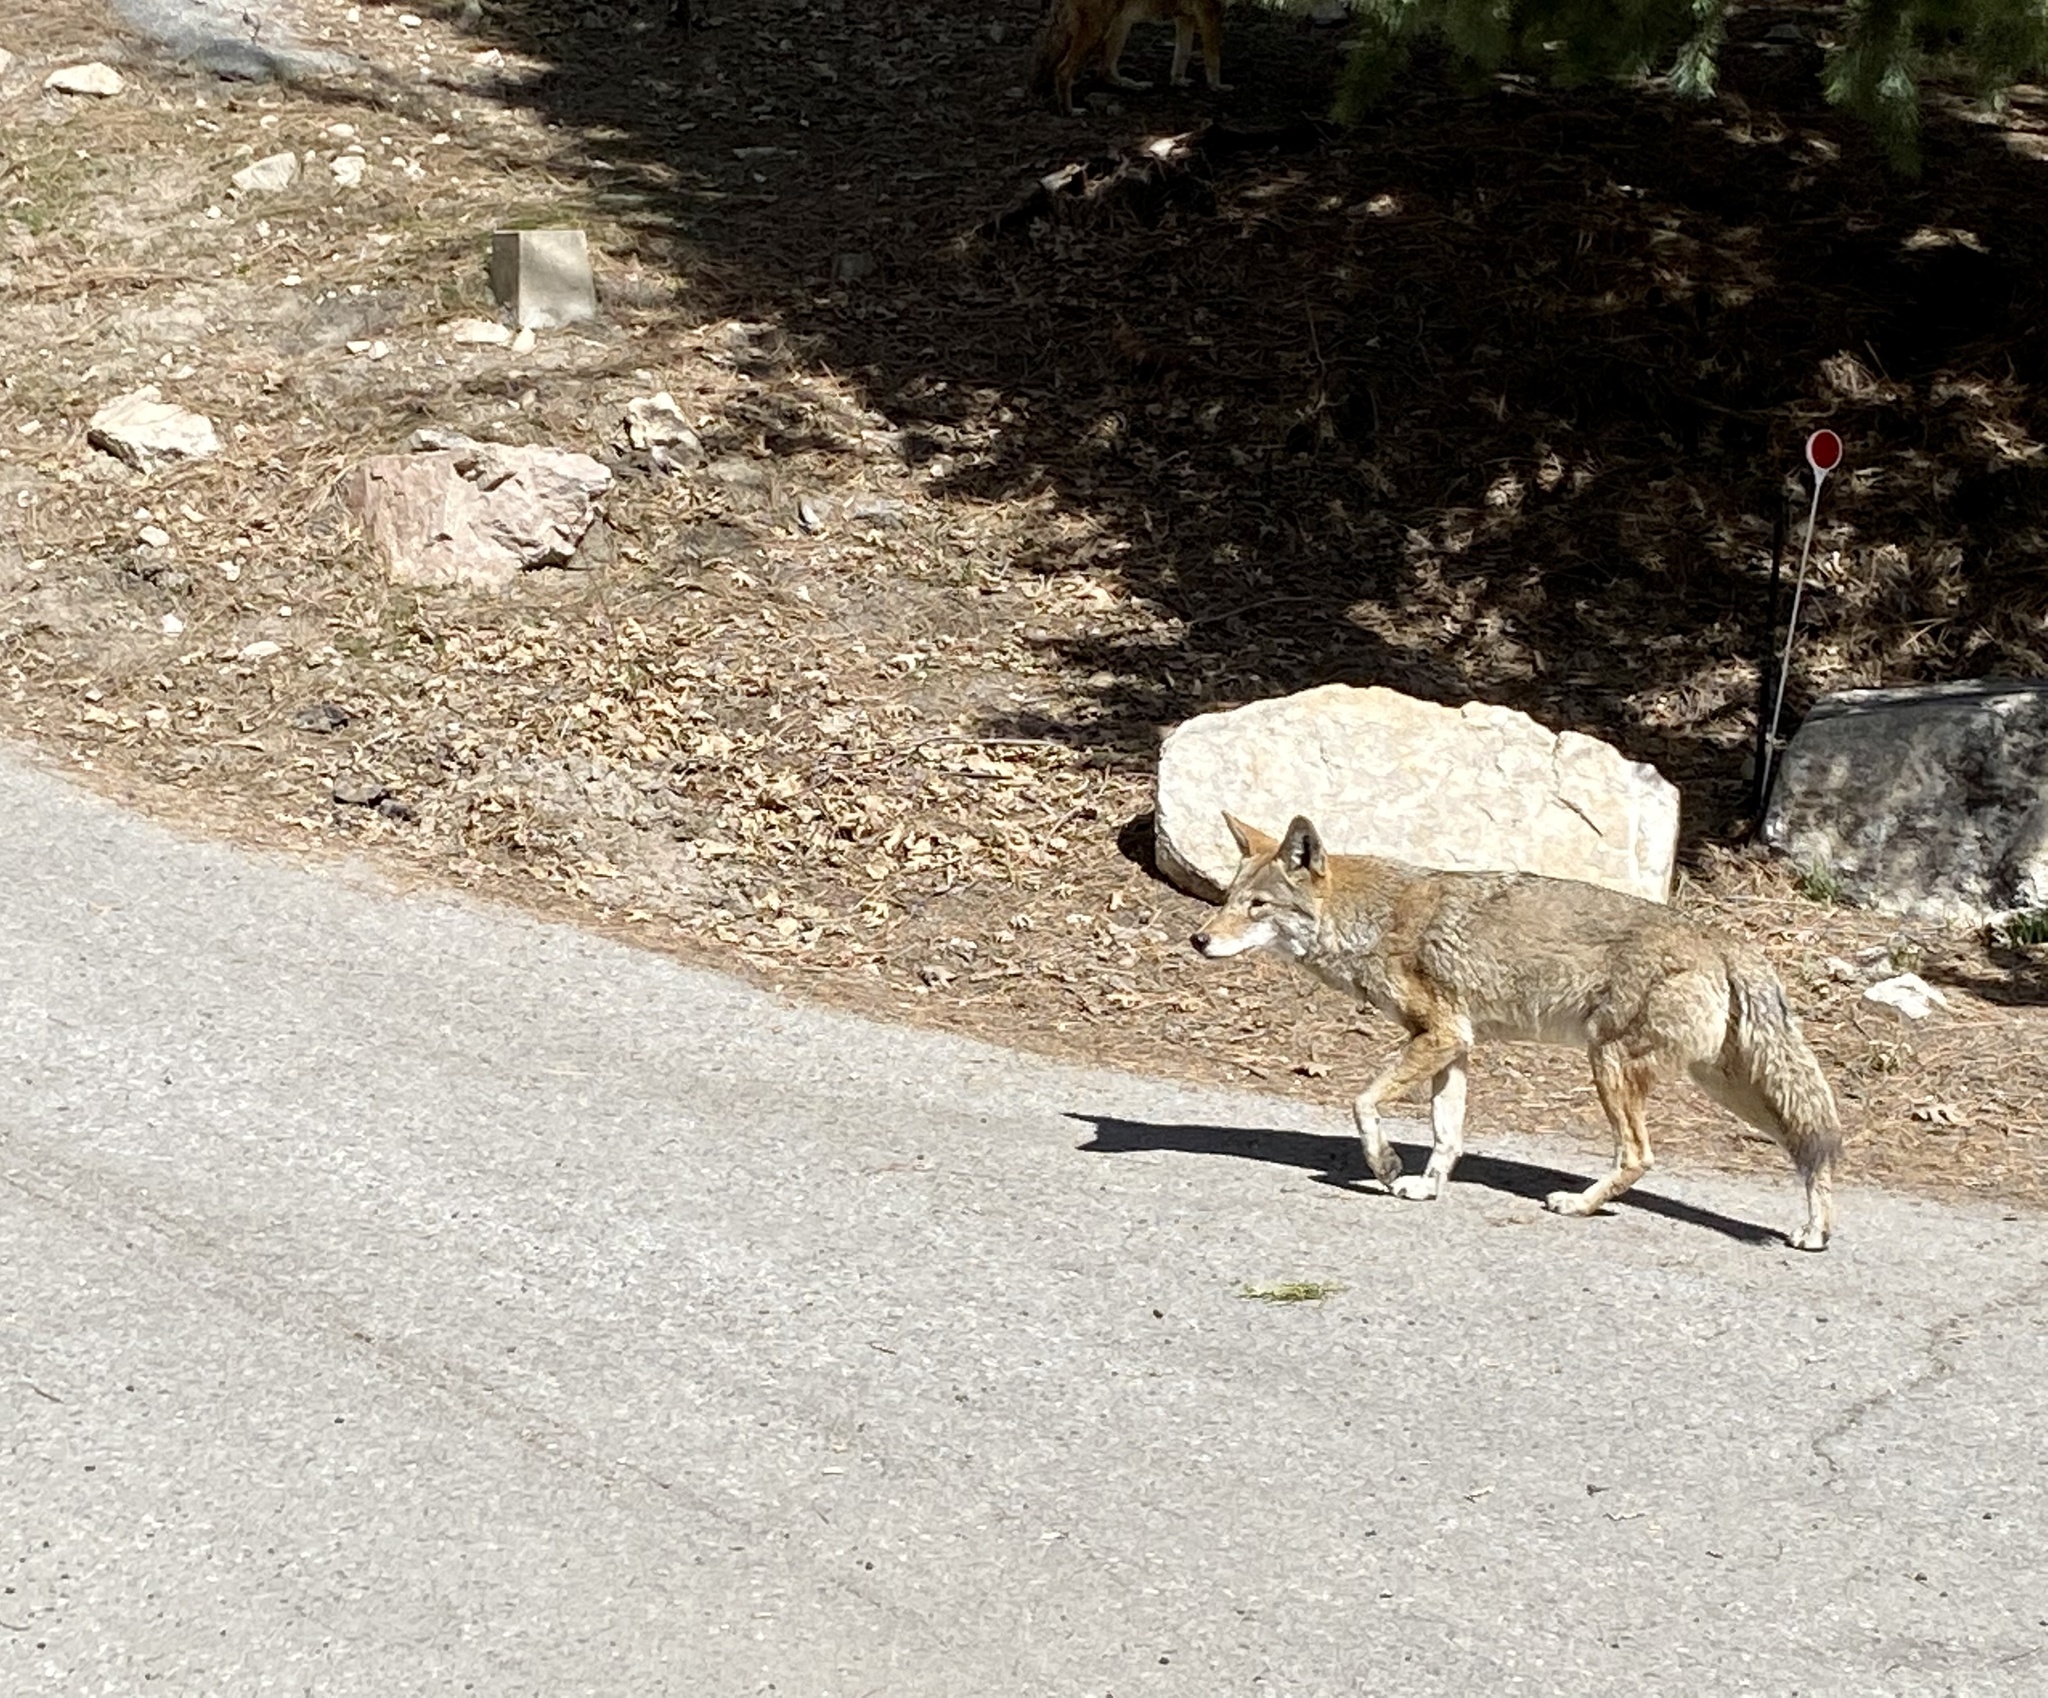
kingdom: Animalia
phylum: Chordata
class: Mammalia
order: Carnivora
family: Canidae
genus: Canis
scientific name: Canis latrans
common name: Coyote
